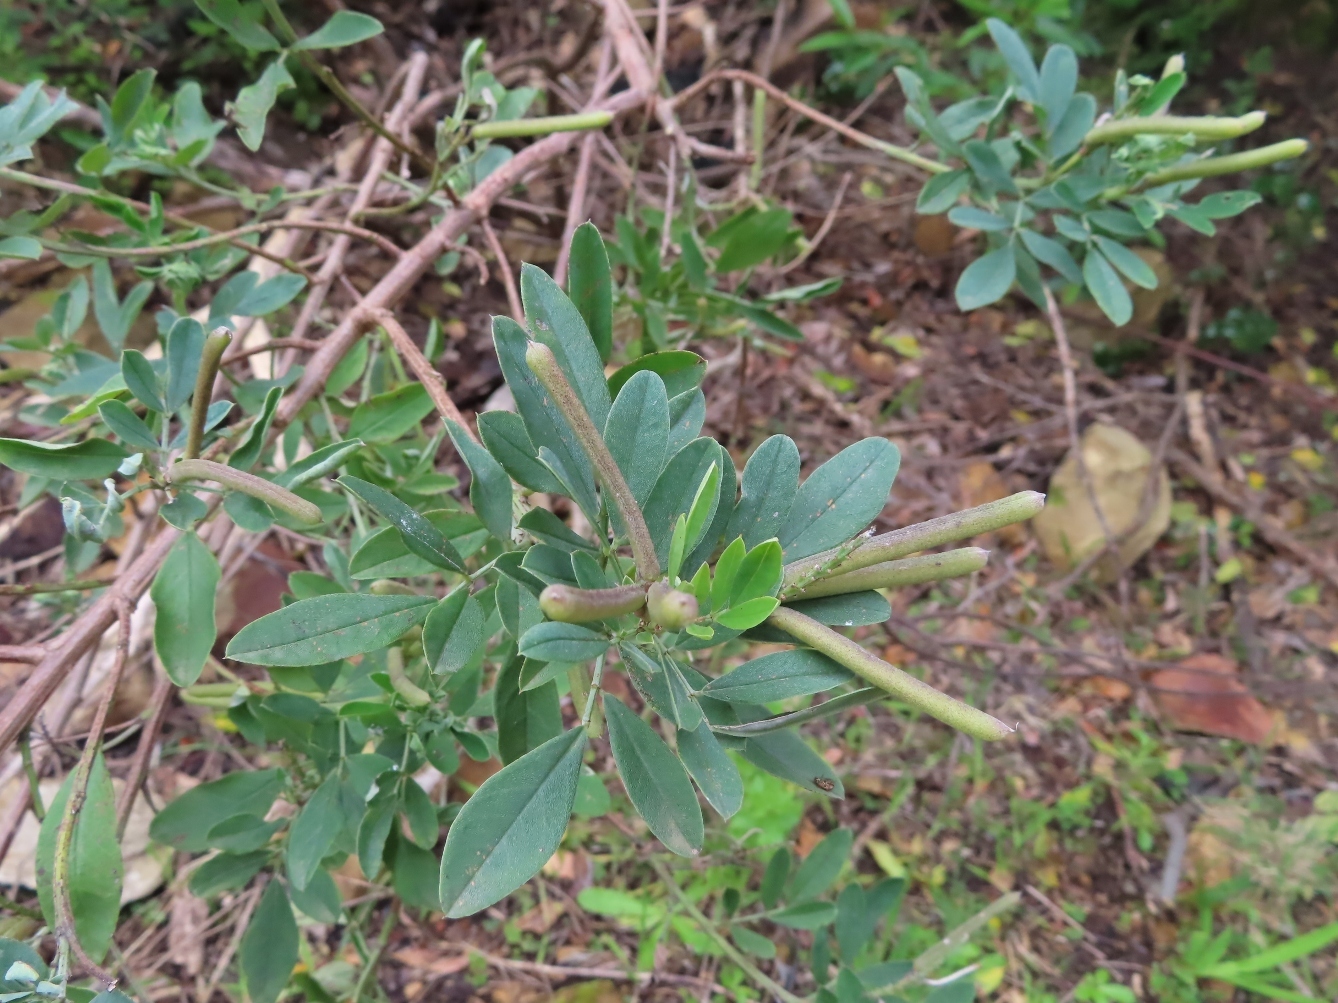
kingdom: Plantae
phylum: Tracheophyta
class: Magnoliopsida
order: Fabales
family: Fabaceae
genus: Indigofera
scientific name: Indigofera cytisoides
